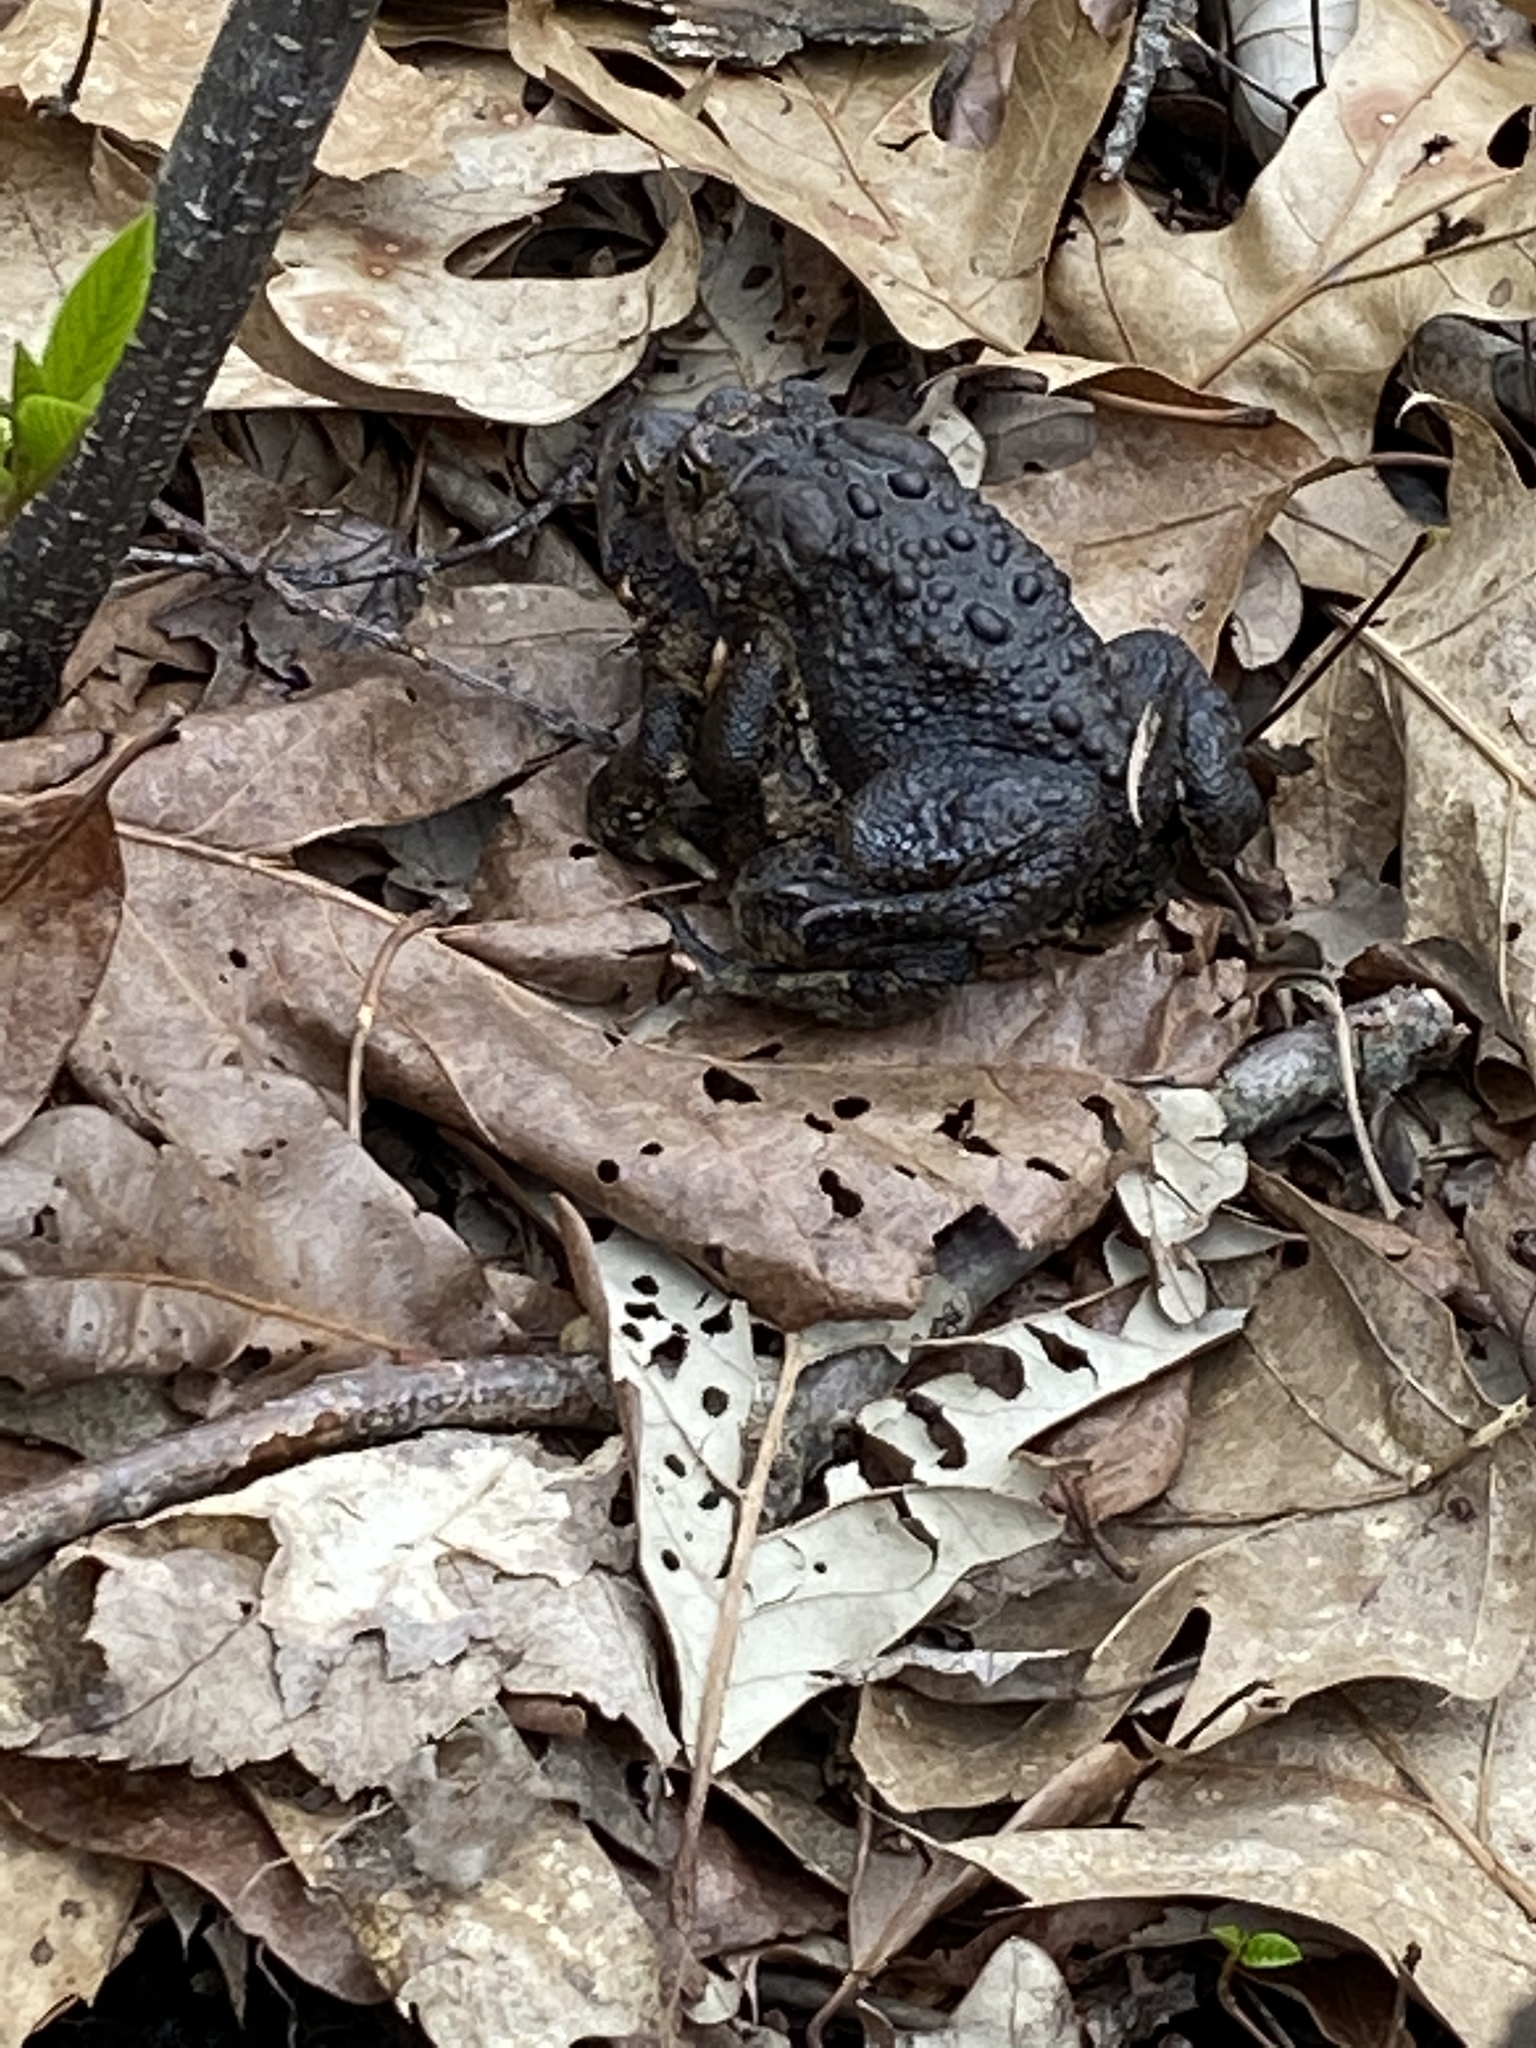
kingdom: Animalia
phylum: Chordata
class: Amphibia
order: Anura
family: Bufonidae
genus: Anaxyrus
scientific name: Anaxyrus americanus
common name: American toad
